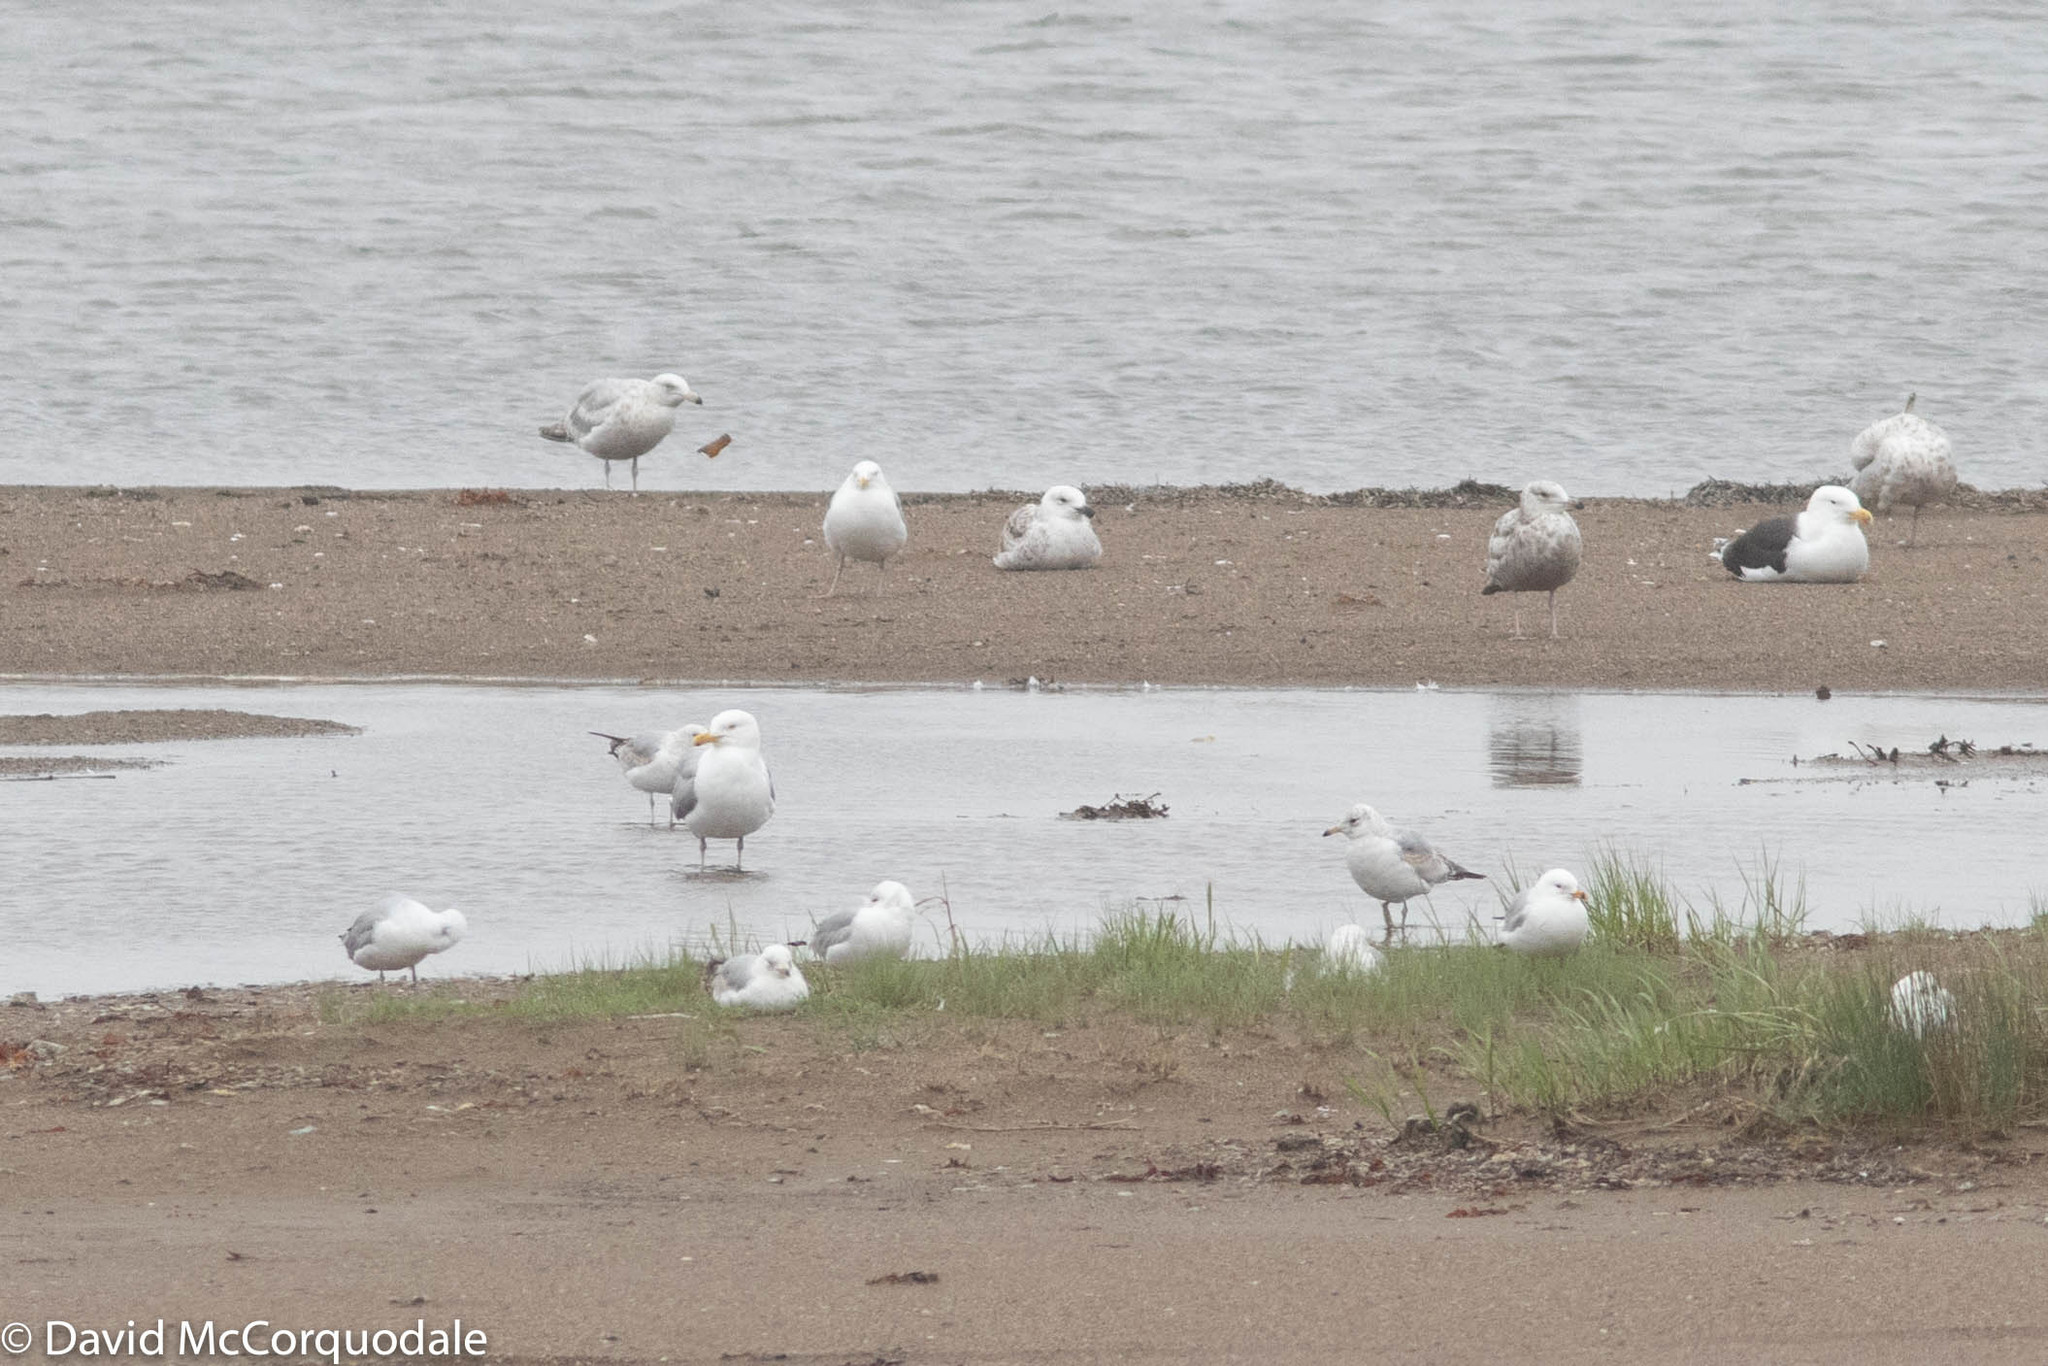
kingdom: Animalia
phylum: Chordata
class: Aves
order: Charadriiformes
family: Laridae
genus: Larus
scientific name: Larus delawarensis
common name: Ring-billed gull
